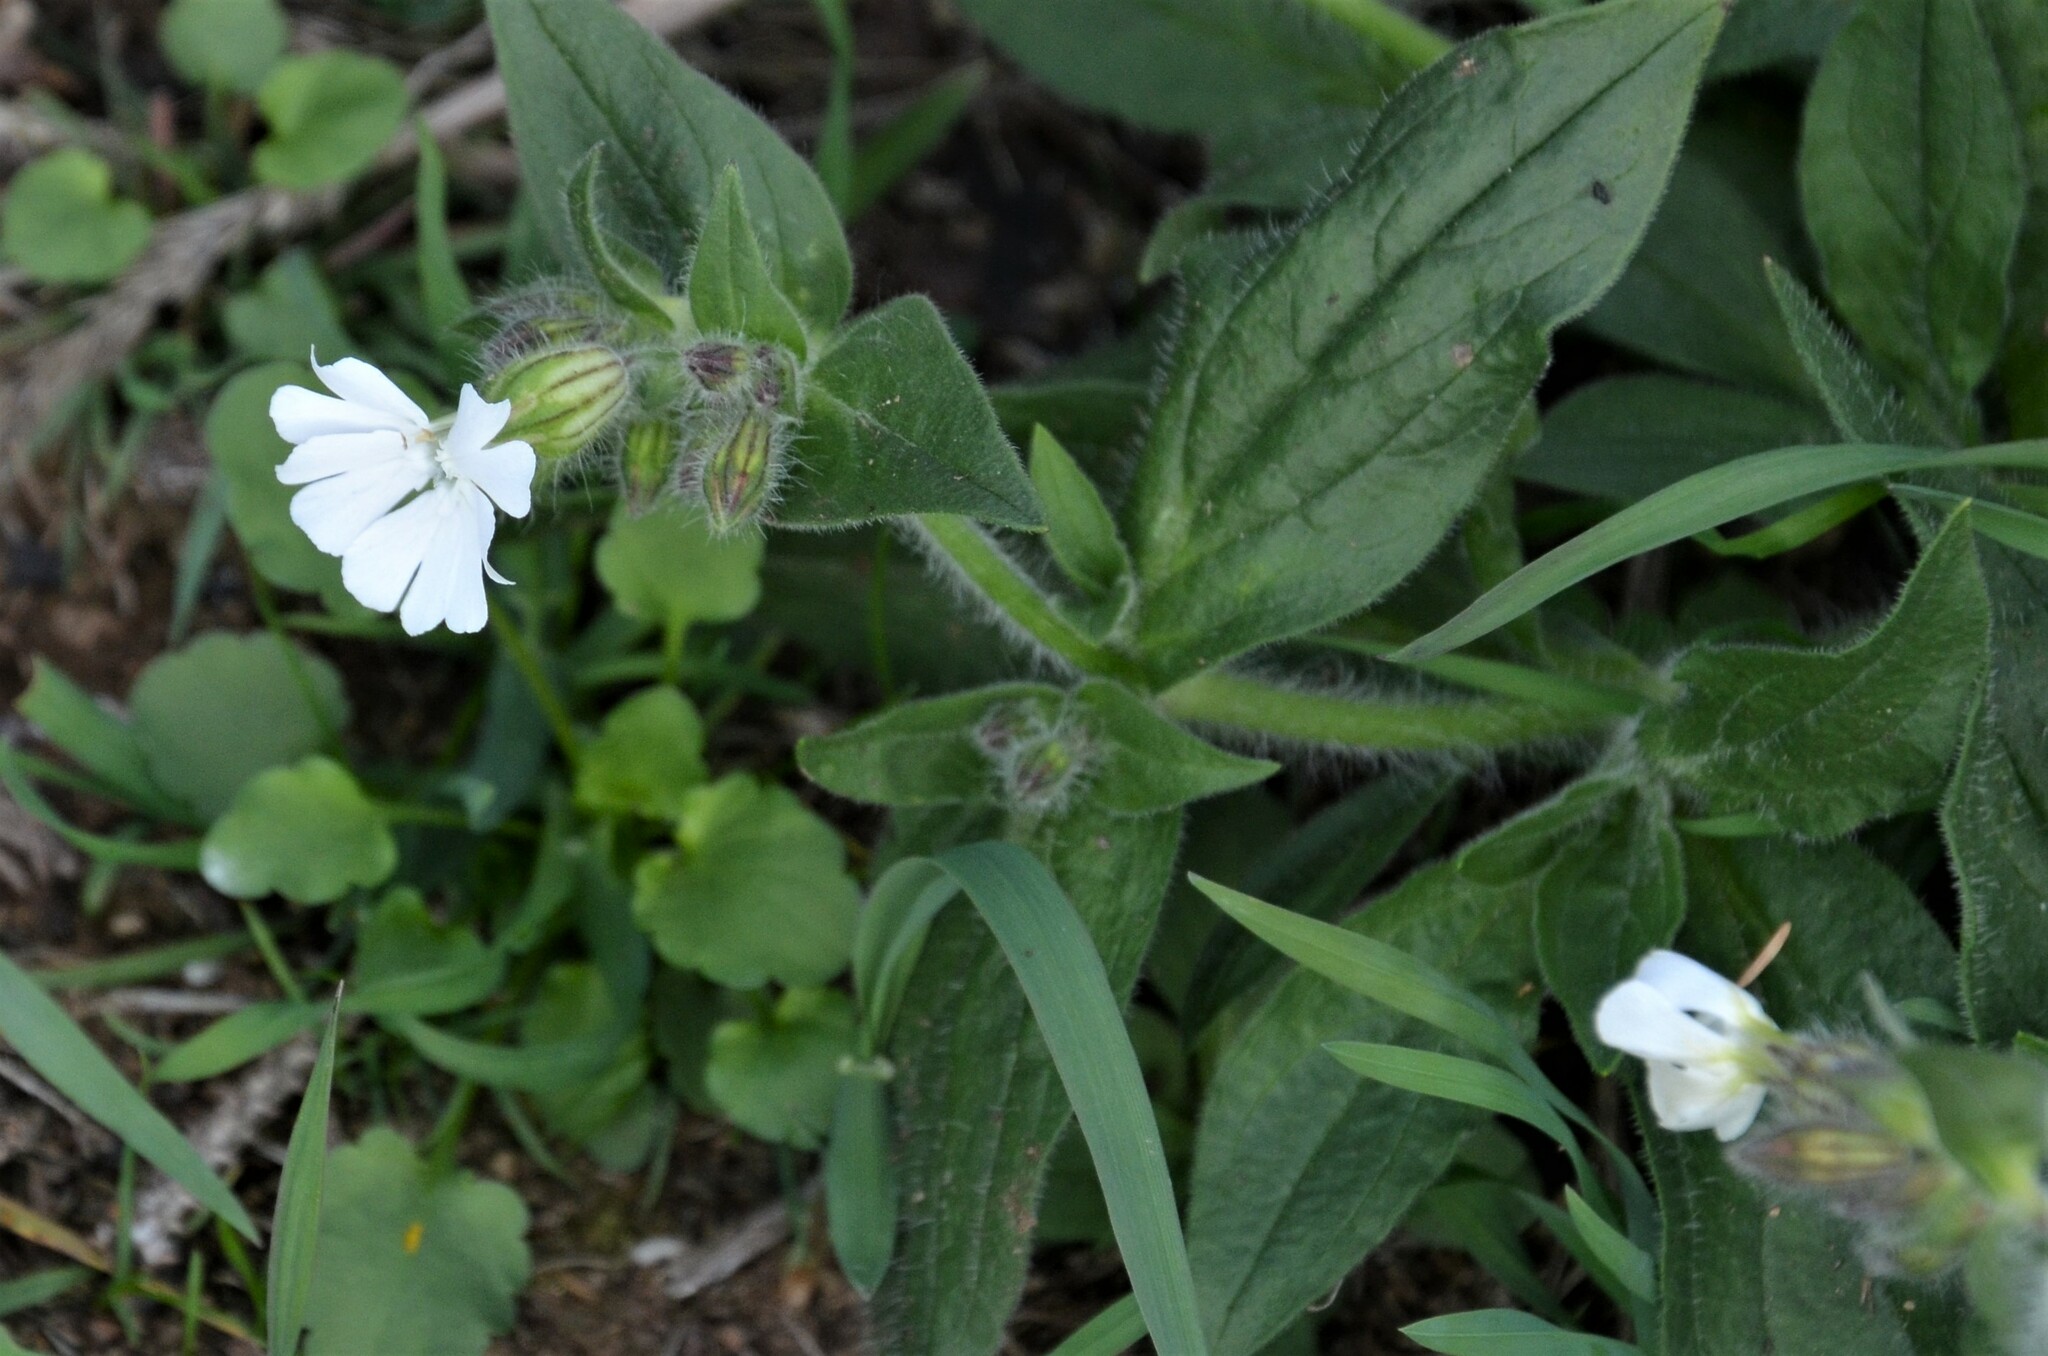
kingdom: Plantae
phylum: Tracheophyta
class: Magnoliopsida
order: Caryophyllales
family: Caryophyllaceae
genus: Silene
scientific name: Silene latifolia
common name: White campion
